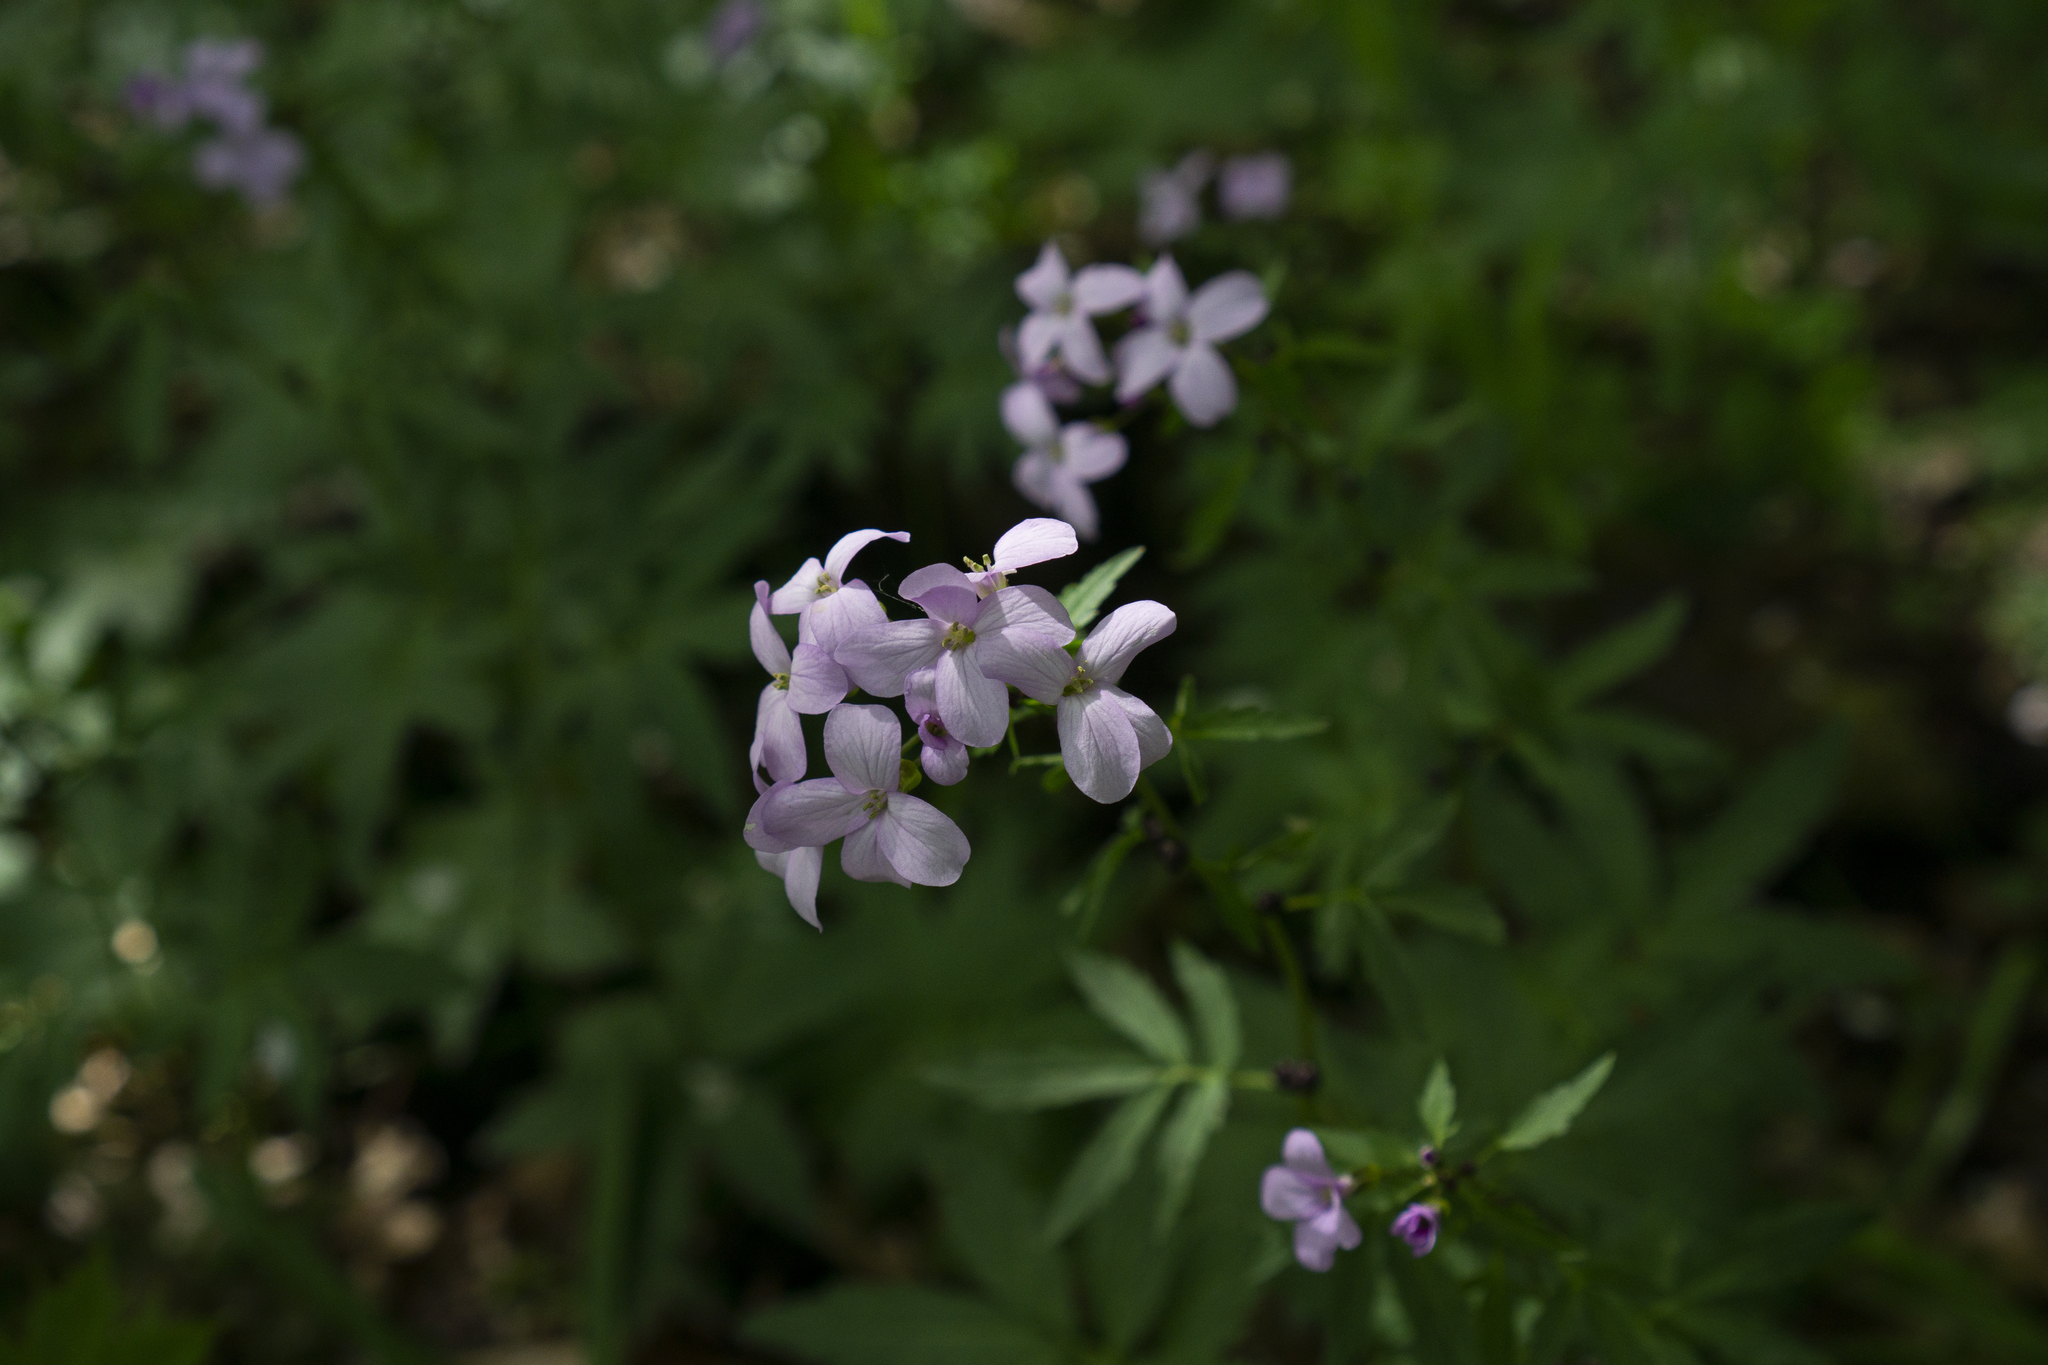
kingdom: Plantae
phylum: Tracheophyta
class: Magnoliopsida
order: Brassicales
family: Brassicaceae
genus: Cardamine
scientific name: Cardamine bulbifera
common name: Coralroot bittercress
